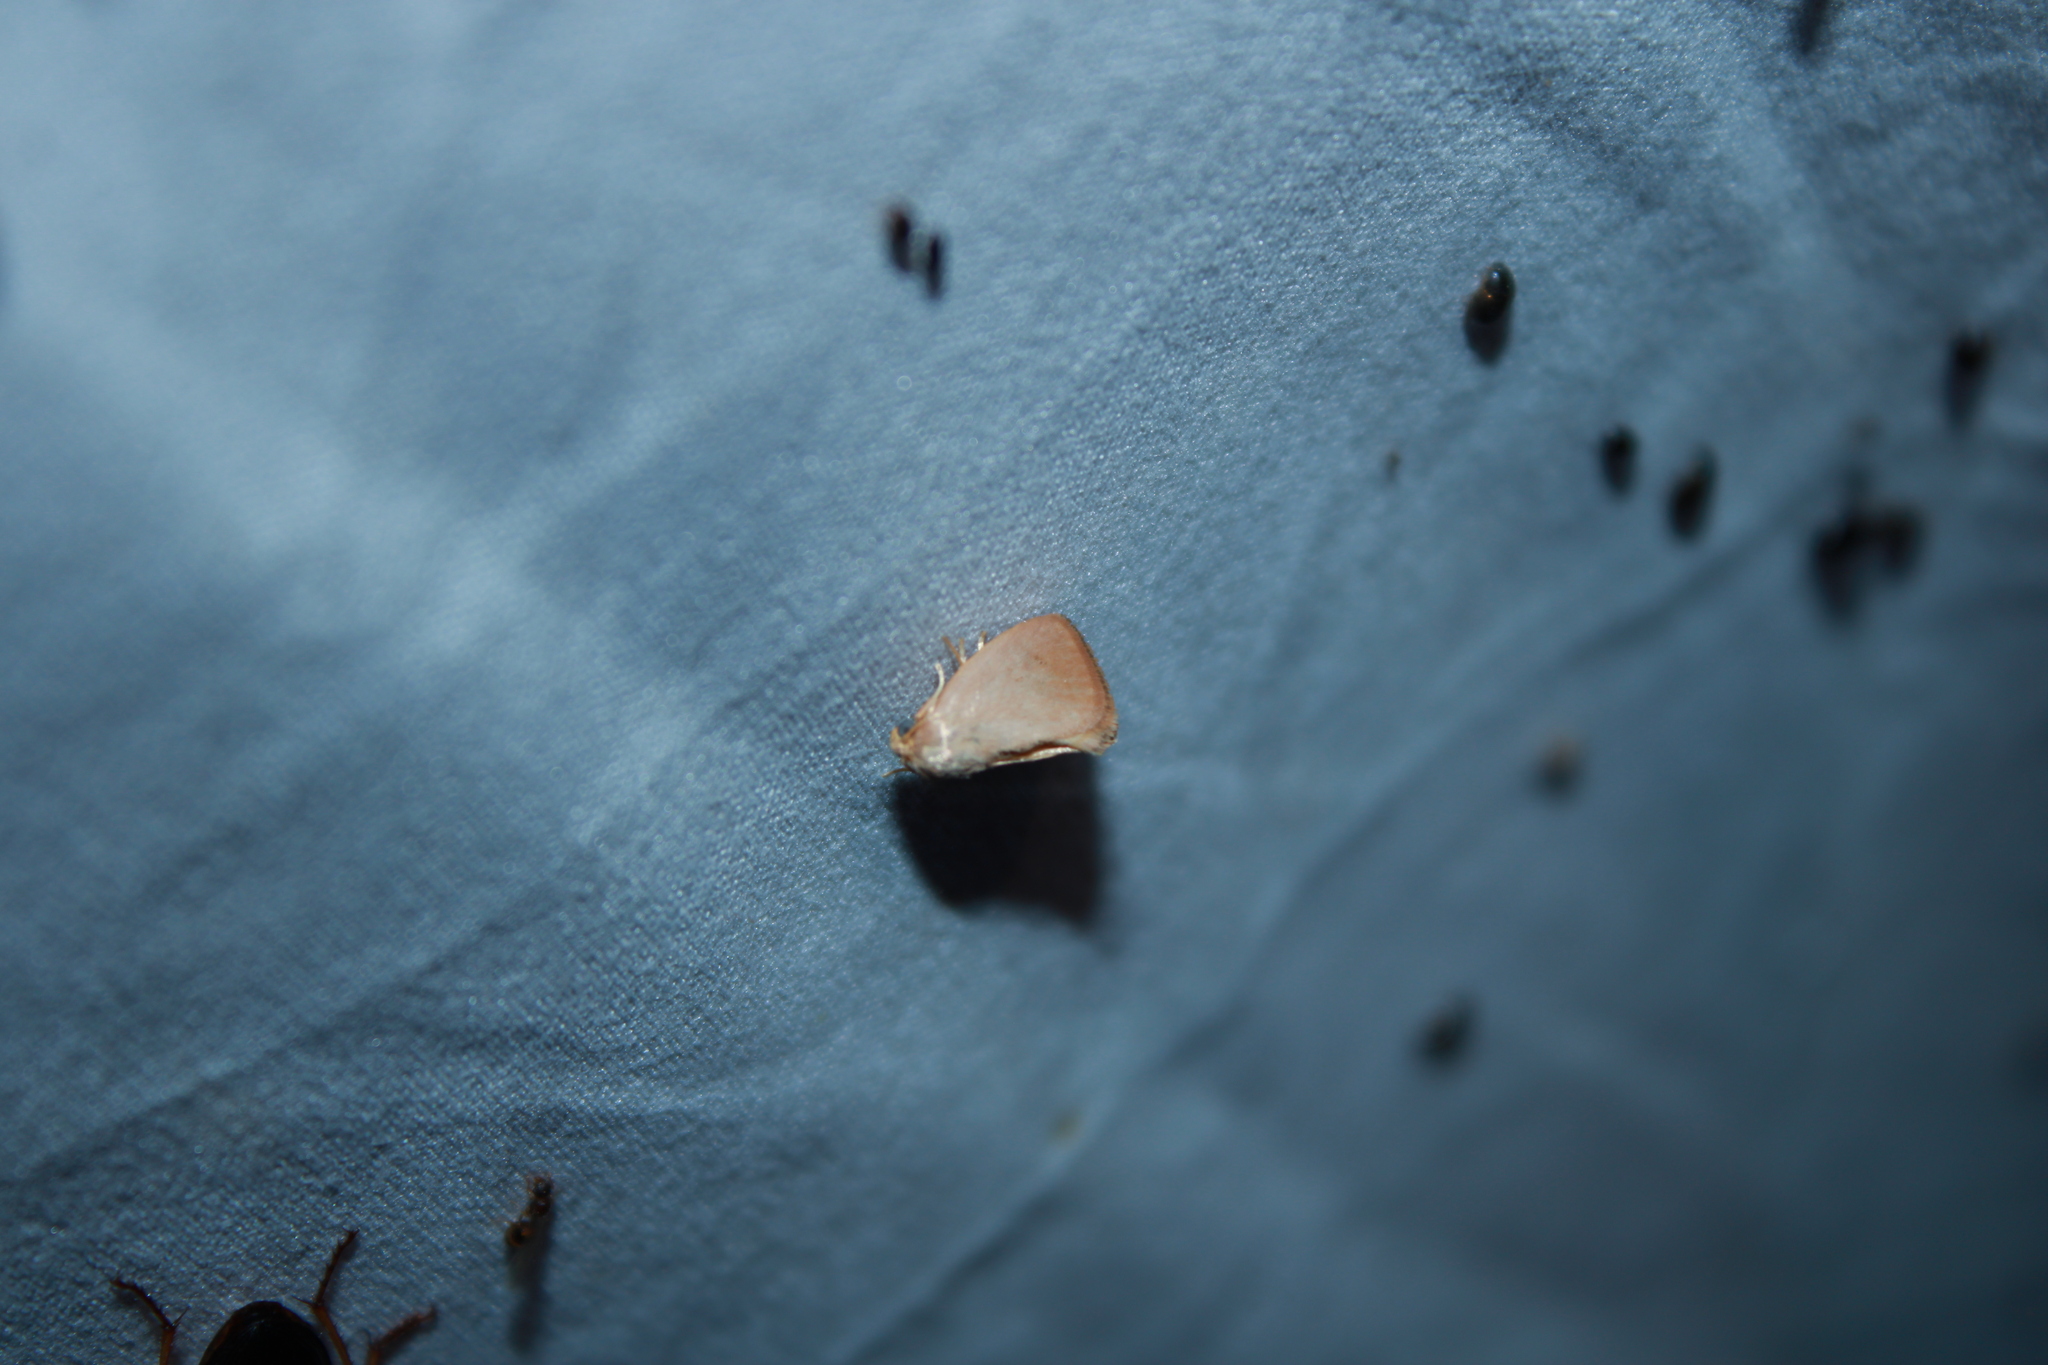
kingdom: Animalia
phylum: Arthropoda
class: Insecta
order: Lepidoptera
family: Limacodidae
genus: Tortricidia
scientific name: Tortricidia pallida
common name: Red-crossed button slug moth
